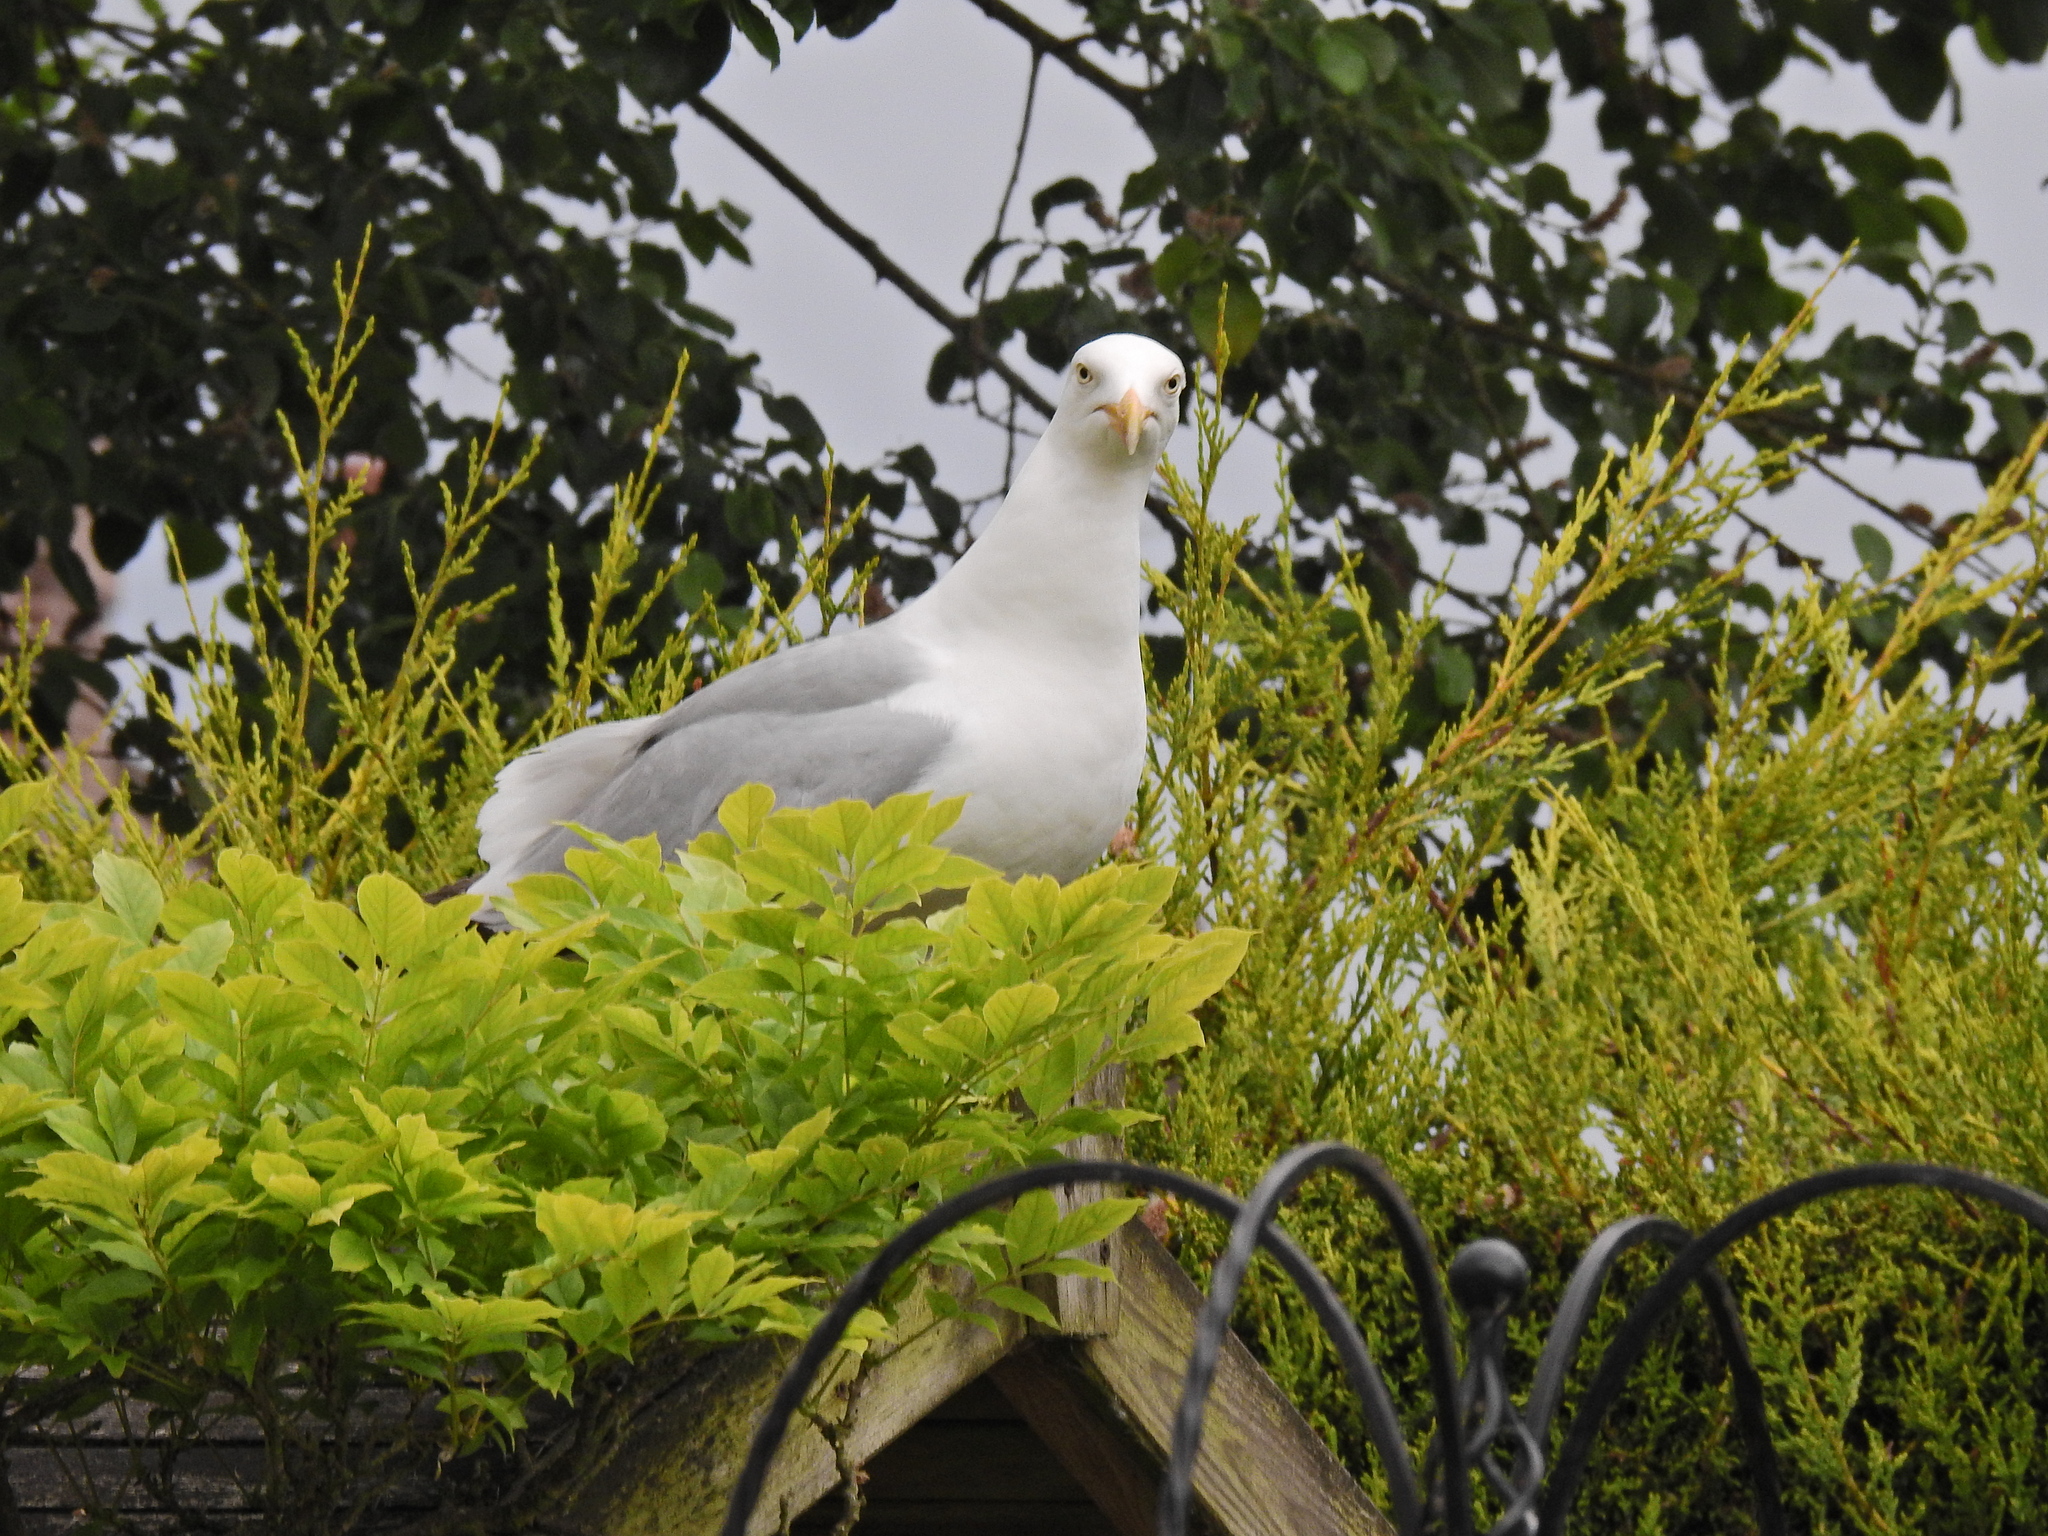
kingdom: Animalia
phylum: Chordata
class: Aves
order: Charadriiformes
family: Laridae
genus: Larus
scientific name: Larus argentatus
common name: Herring gull
